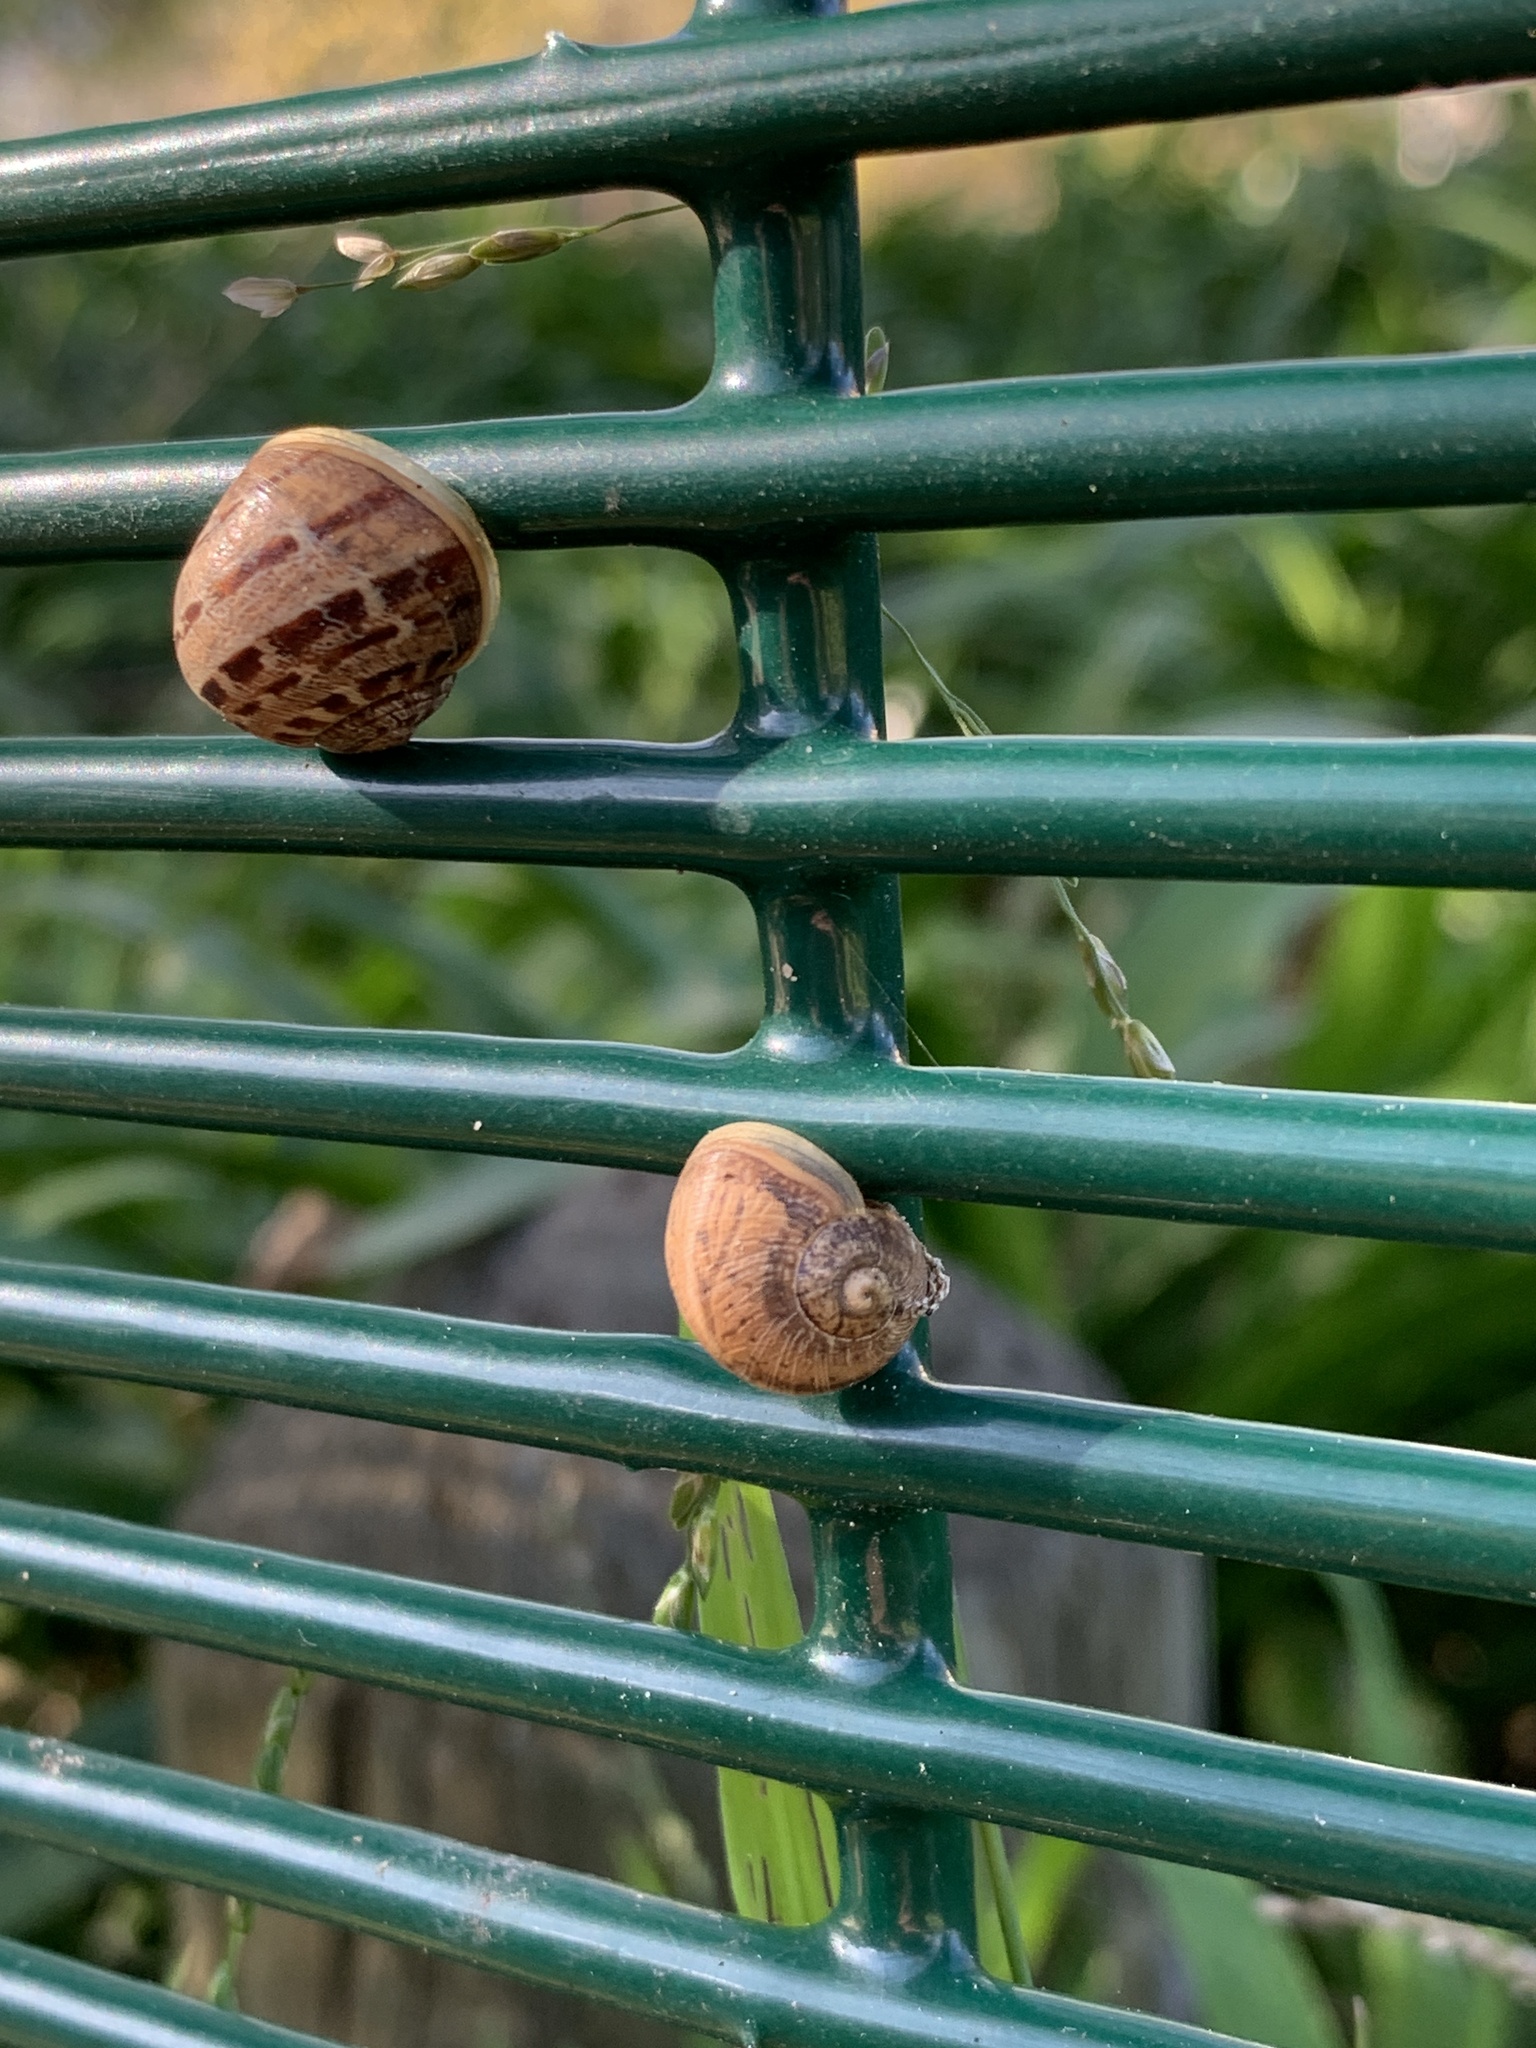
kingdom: Animalia
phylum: Mollusca
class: Gastropoda
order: Stylommatophora
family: Helicidae
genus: Cornu
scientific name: Cornu aspersum
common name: Brown garden snail
